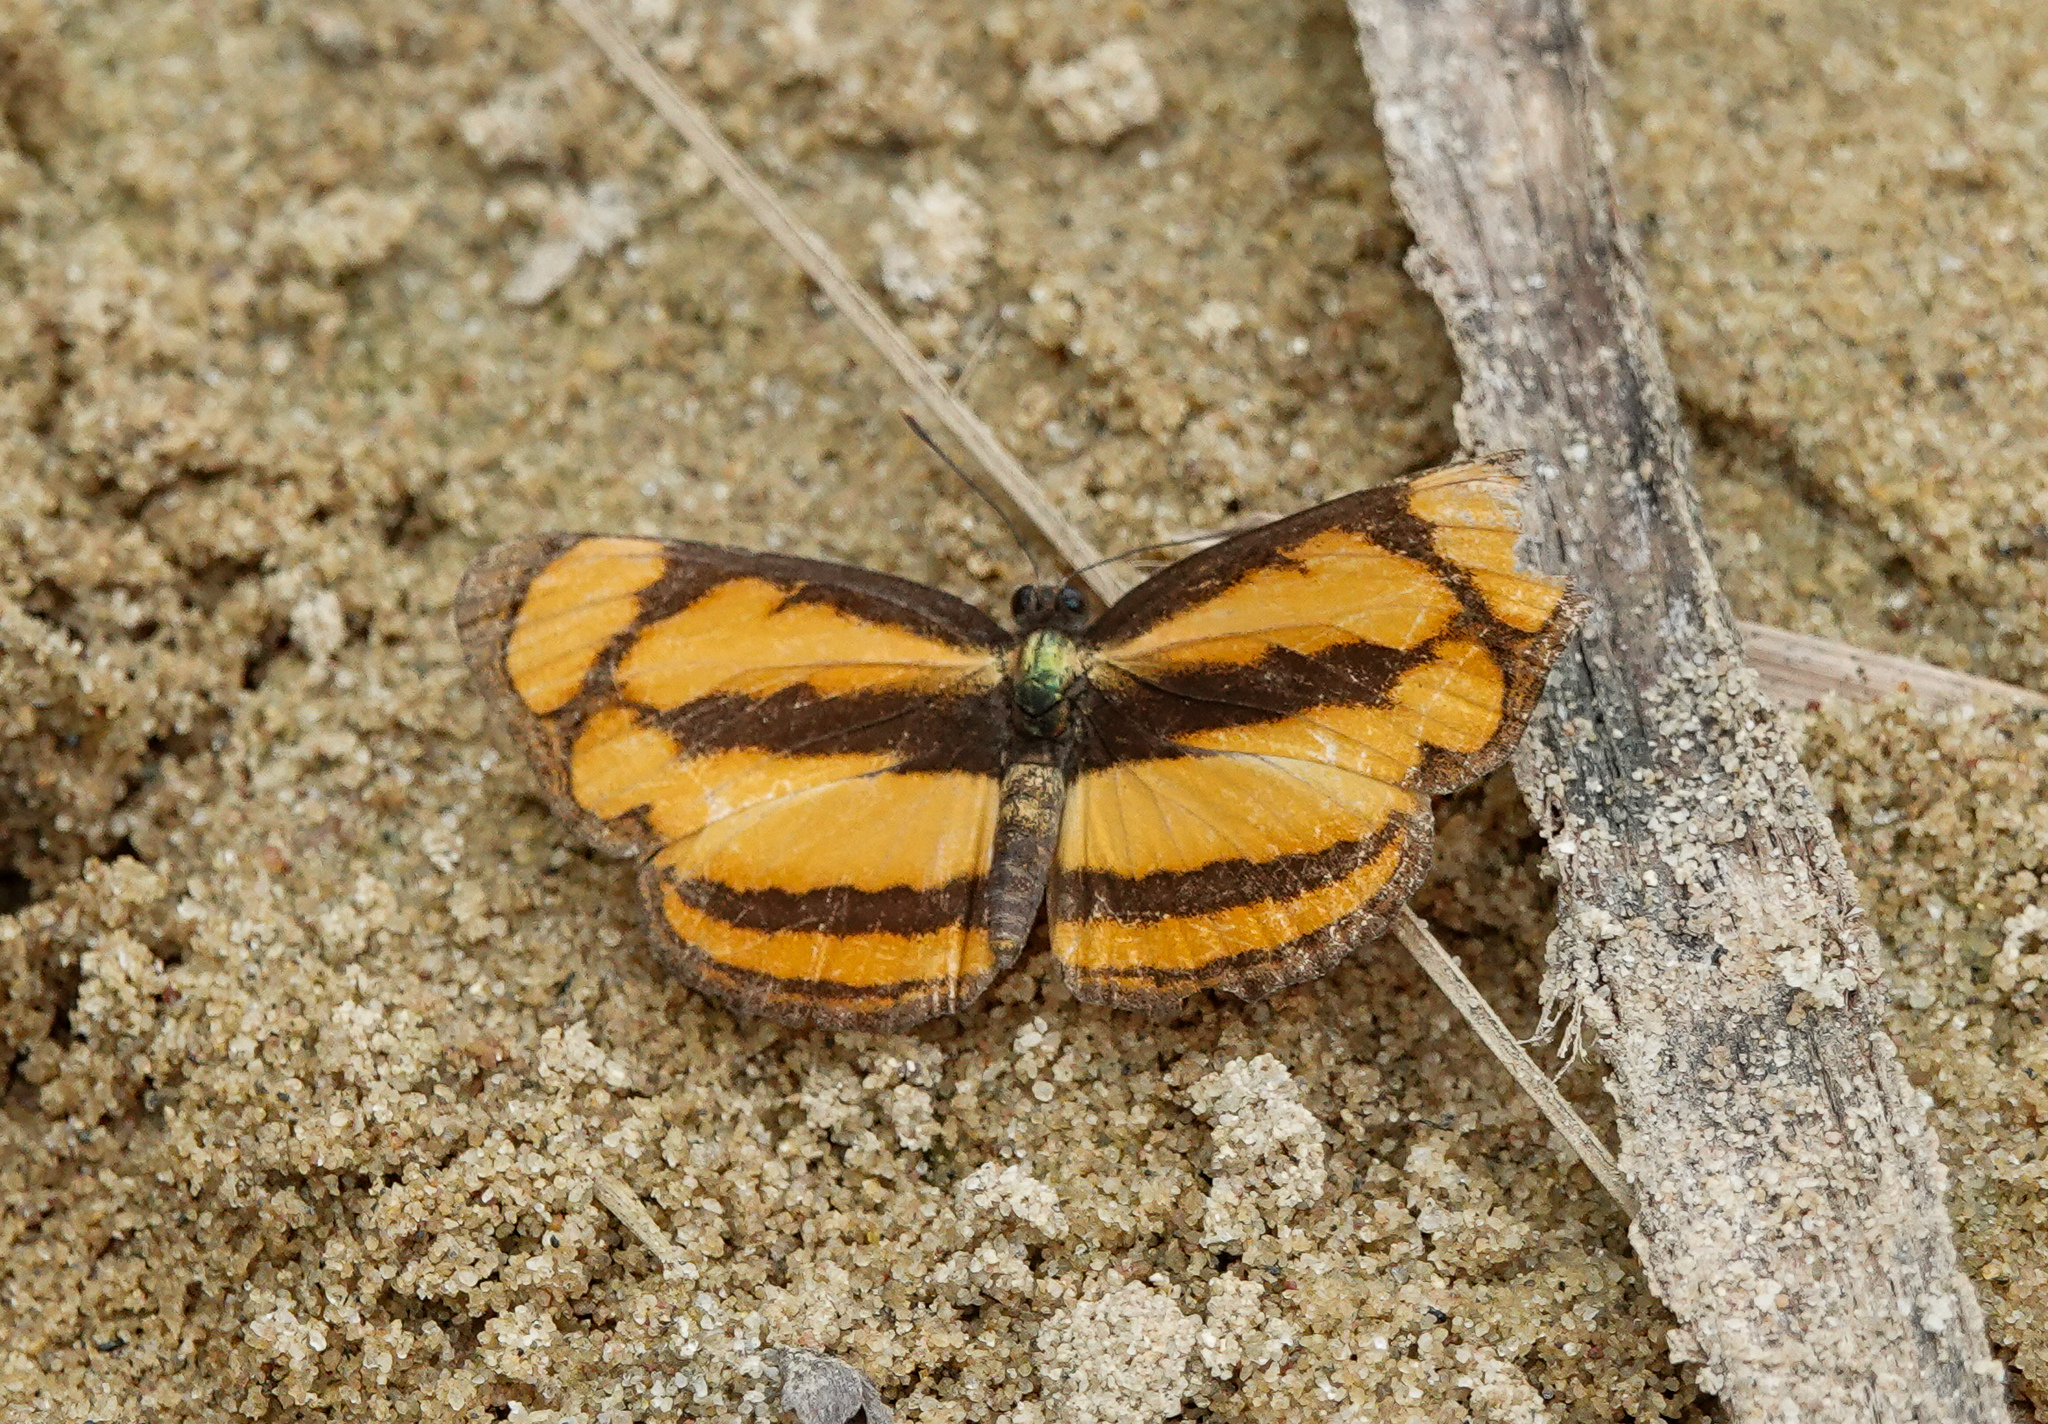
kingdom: Animalia
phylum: Arthropoda
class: Insecta
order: Lepidoptera
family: Nymphalidae
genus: Pantoporia
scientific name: Pantoporia paraka
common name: Perak lascar
